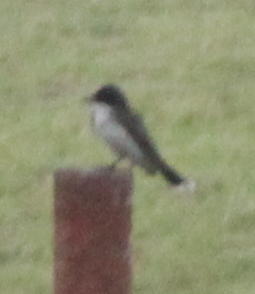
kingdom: Animalia
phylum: Chordata
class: Aves
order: Passeriformes
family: Tyrannidae
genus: Tyrannus
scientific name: Tyrannus tyrannus
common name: Eastern kingbird
